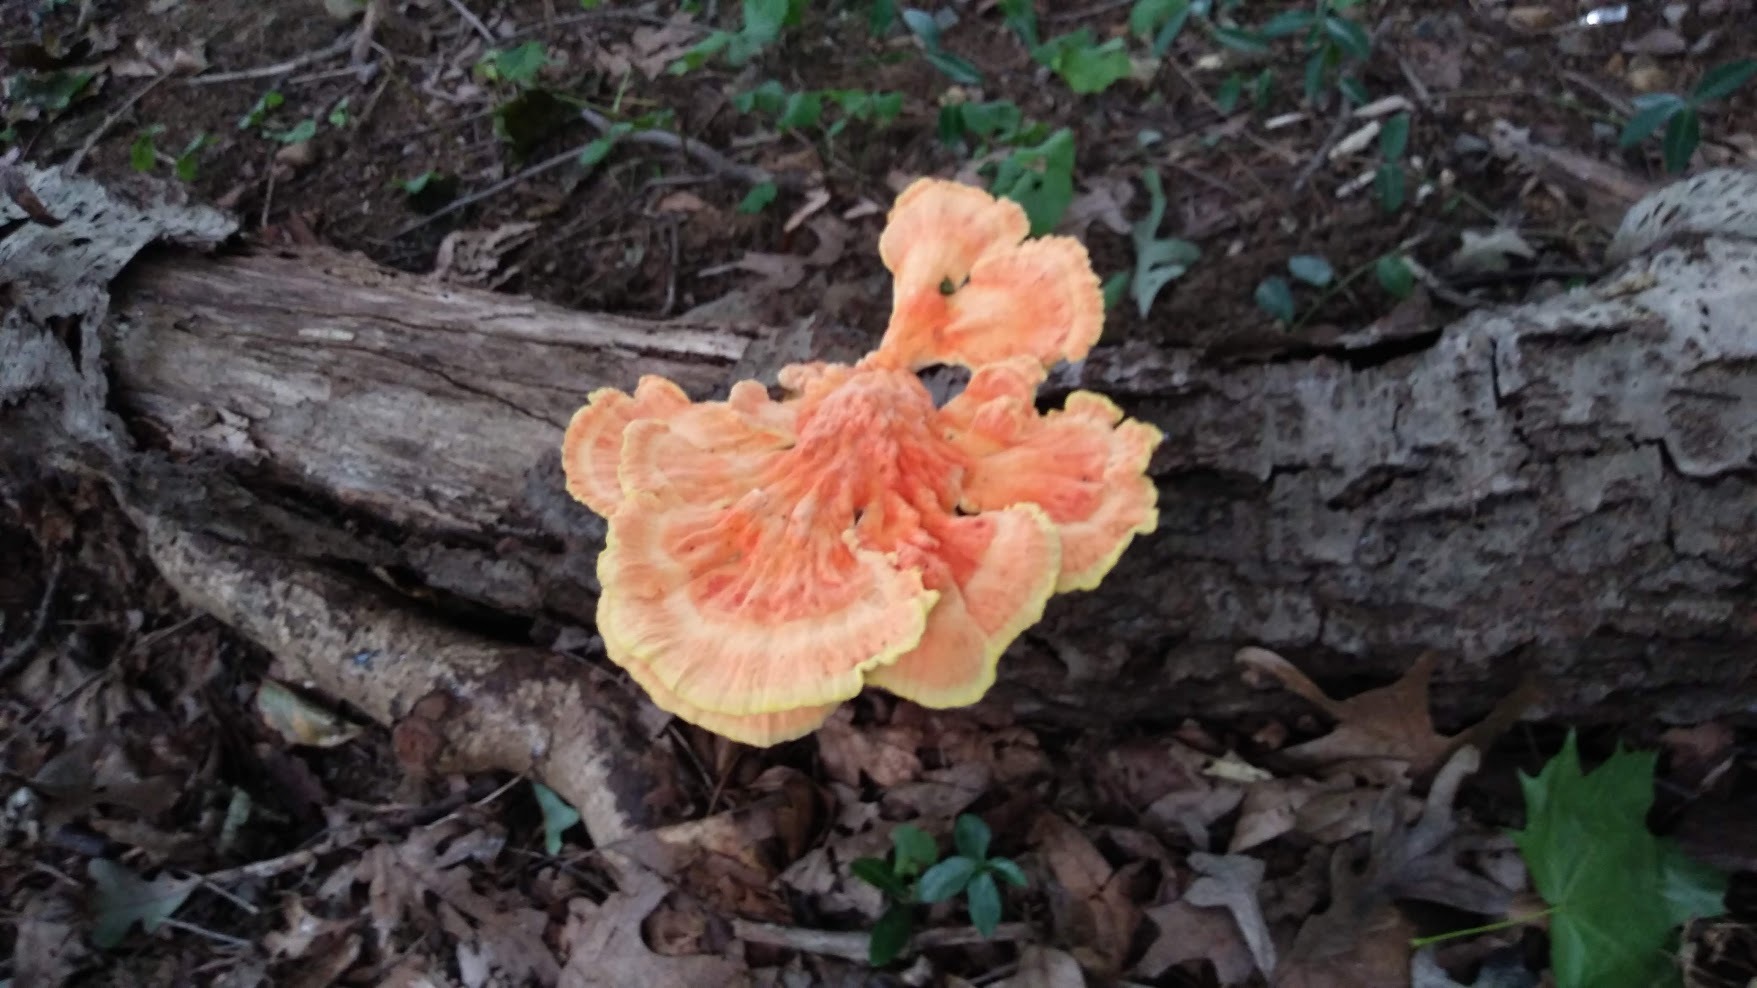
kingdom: Fungi
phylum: Basidiomycota
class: Agaricomycetes
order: Polyporales
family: Laetiporaceae
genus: Laetiporus
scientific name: Laetiporus sulphureus
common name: Chicken of the woods
